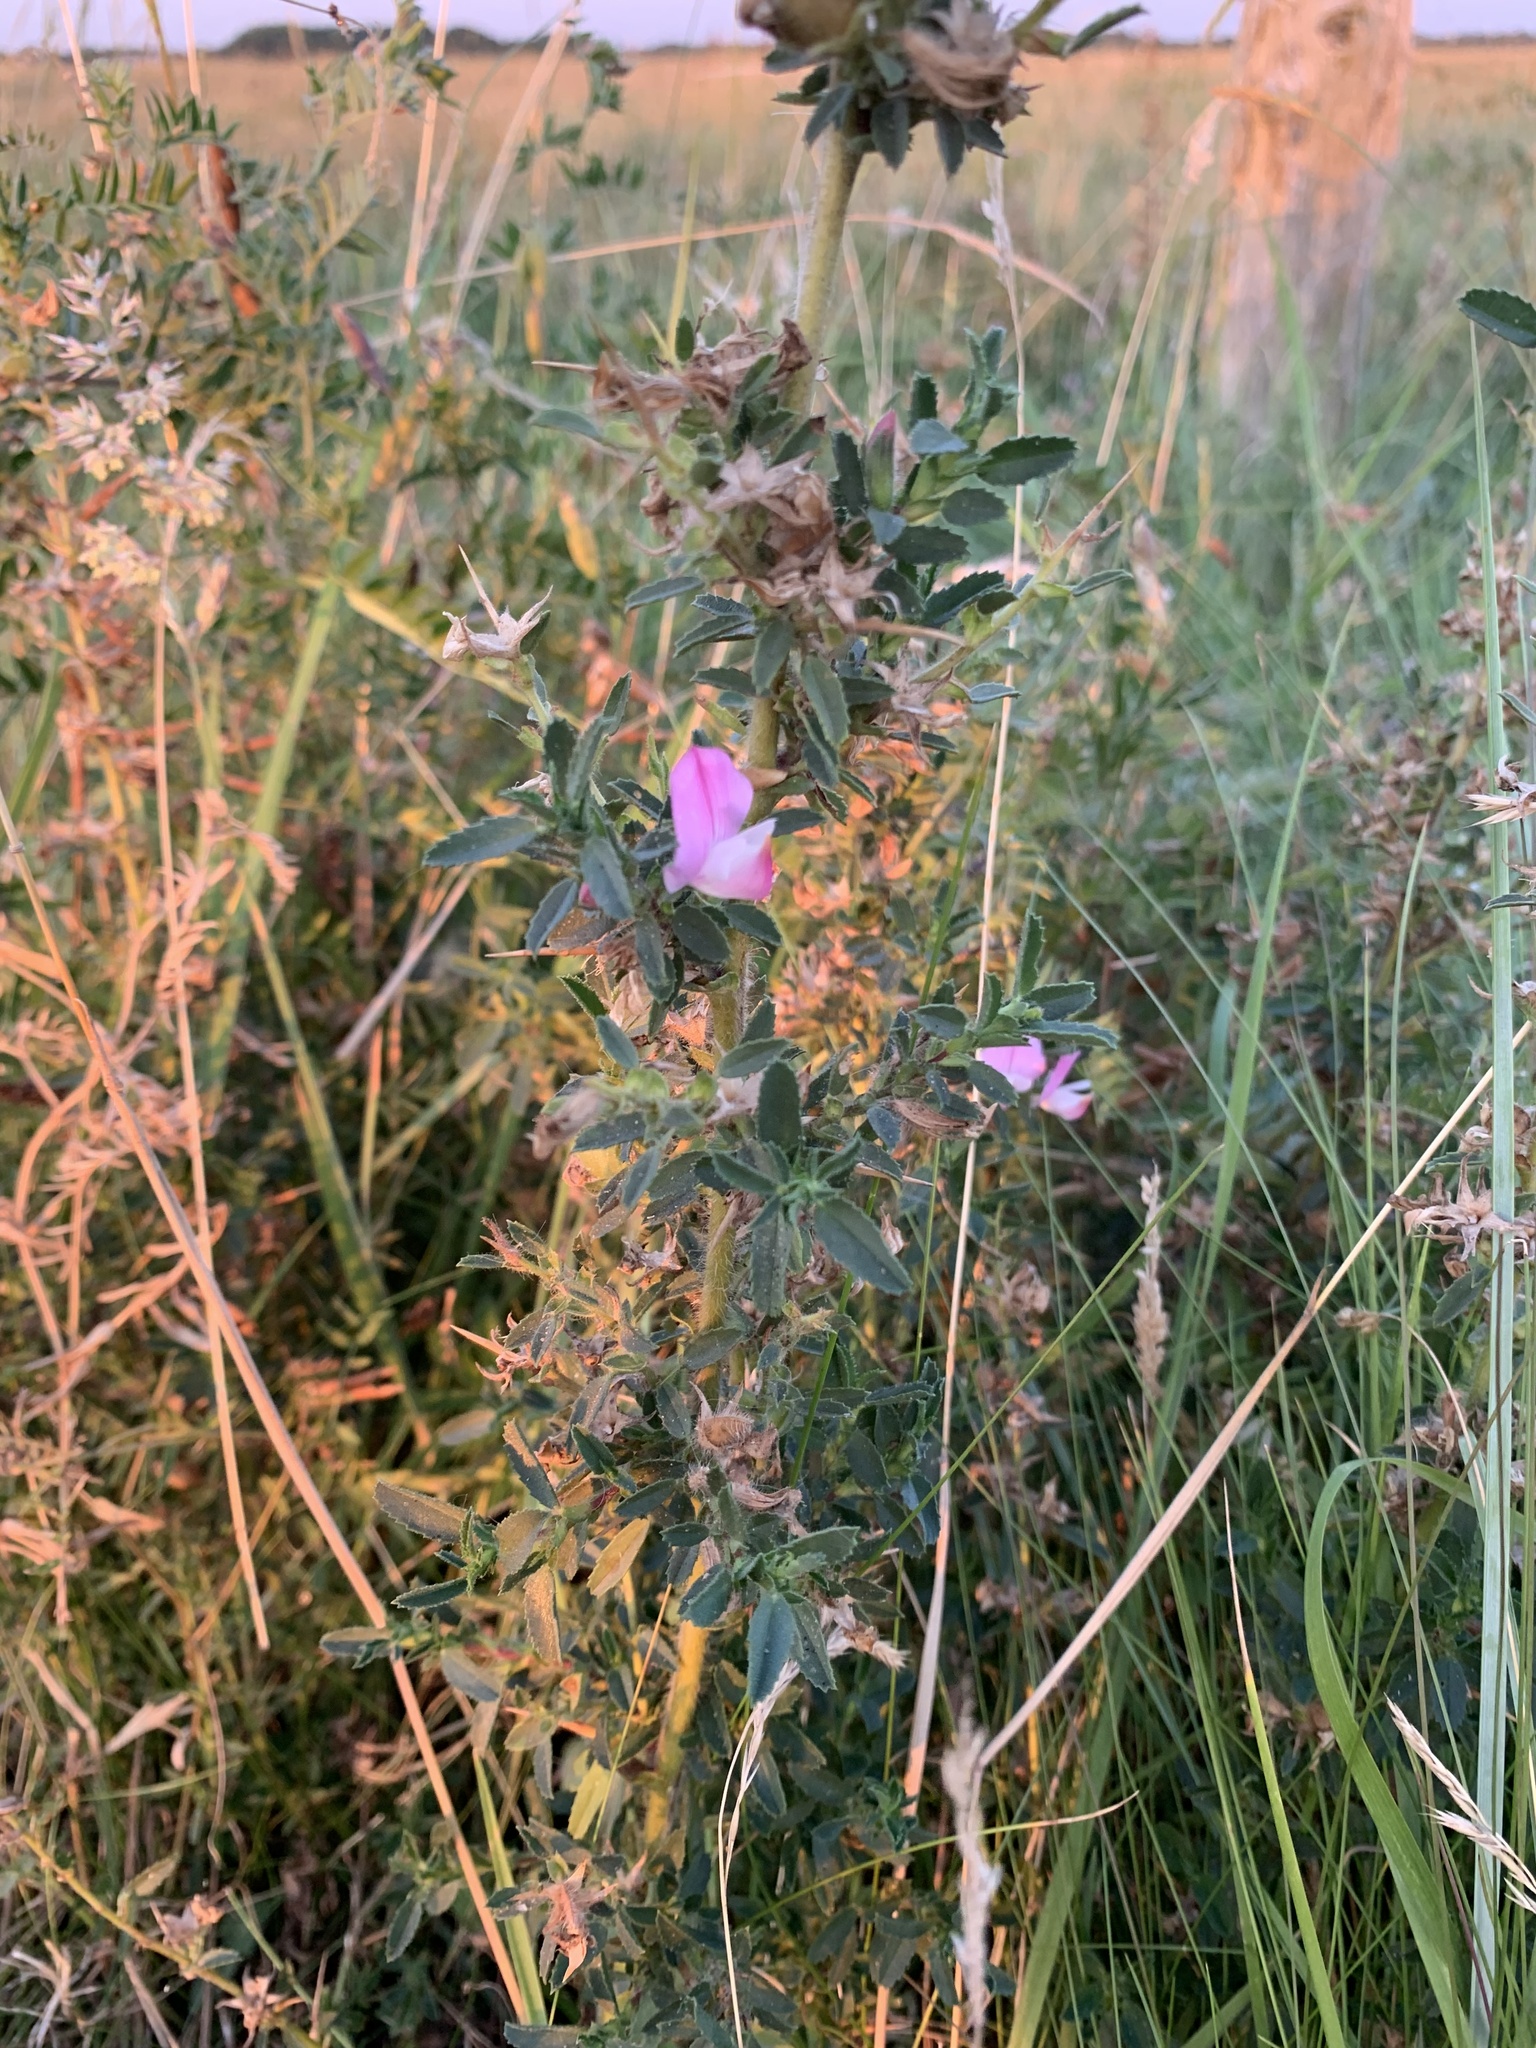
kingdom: Plantae
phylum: Tracheophyta
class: Magnoliopsida
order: Fabales
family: Fabaceae
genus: Ononis
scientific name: Ononis spinosa
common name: Spiny restharrow
